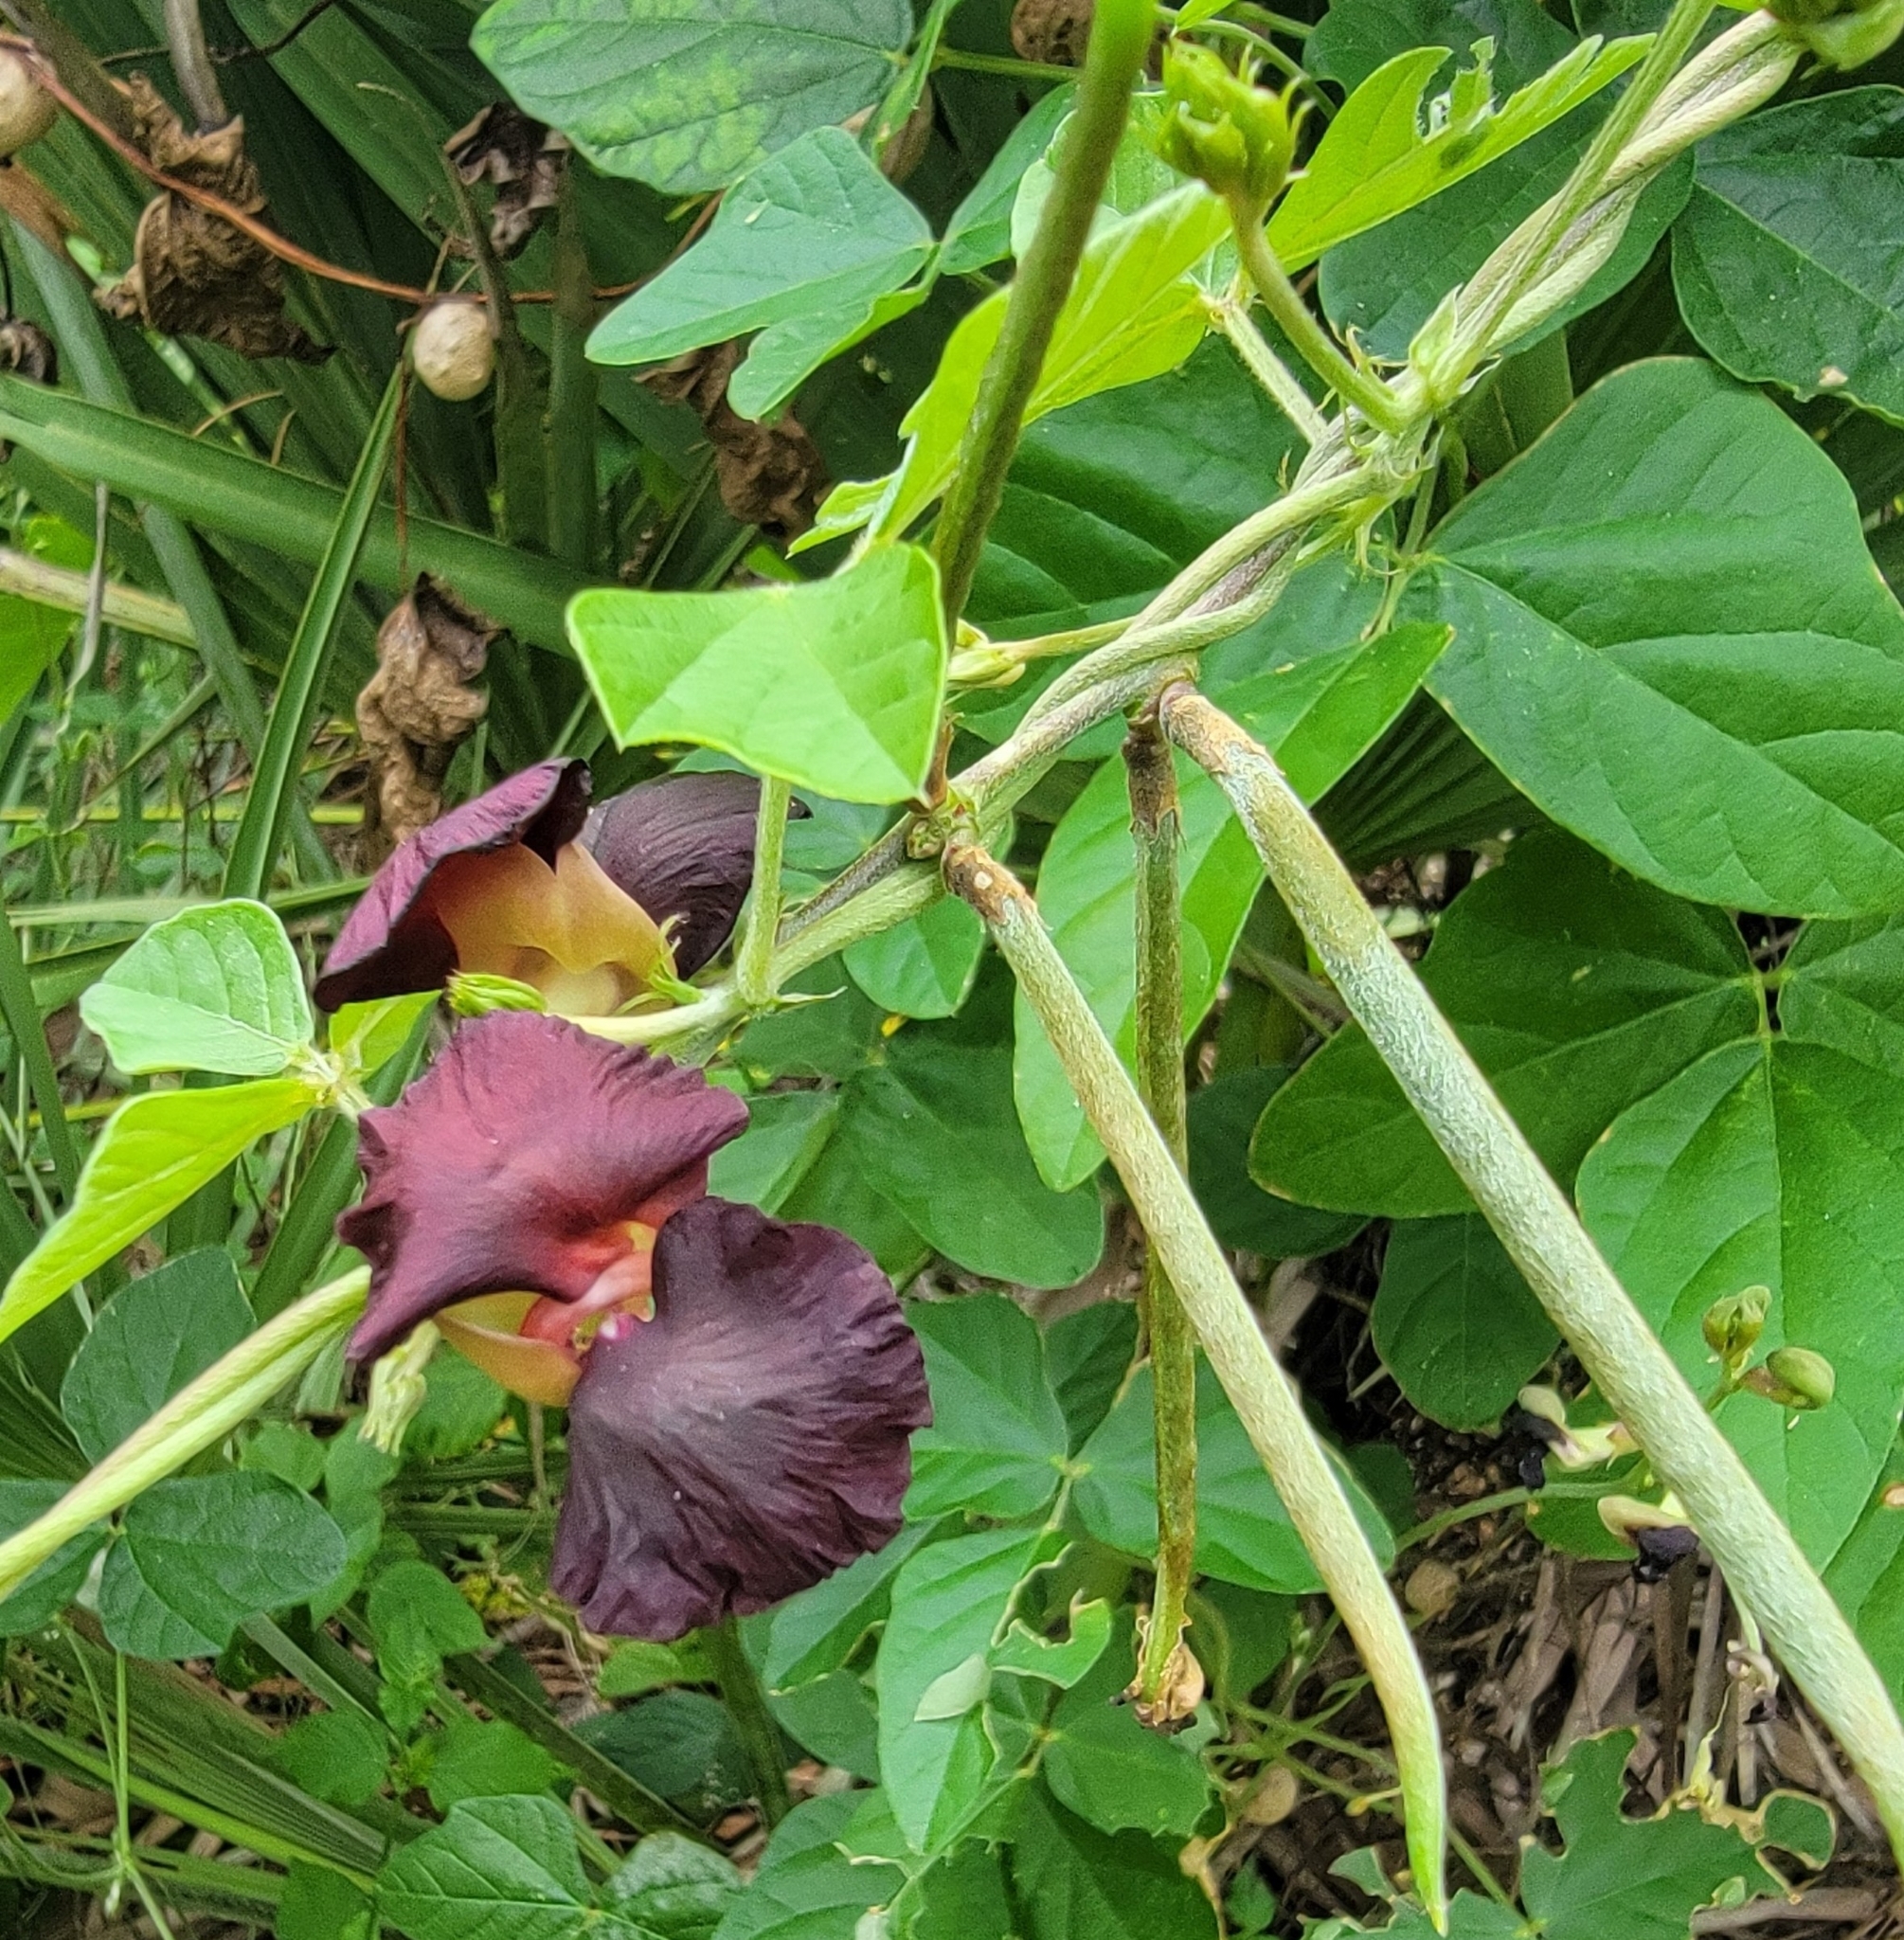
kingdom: Plantae
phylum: Tracheophyta
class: Magnoliopsida
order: Fabales
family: Fabaceae
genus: Macroptilium
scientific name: Macroptilium atropurpureum
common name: Purple bushbean
